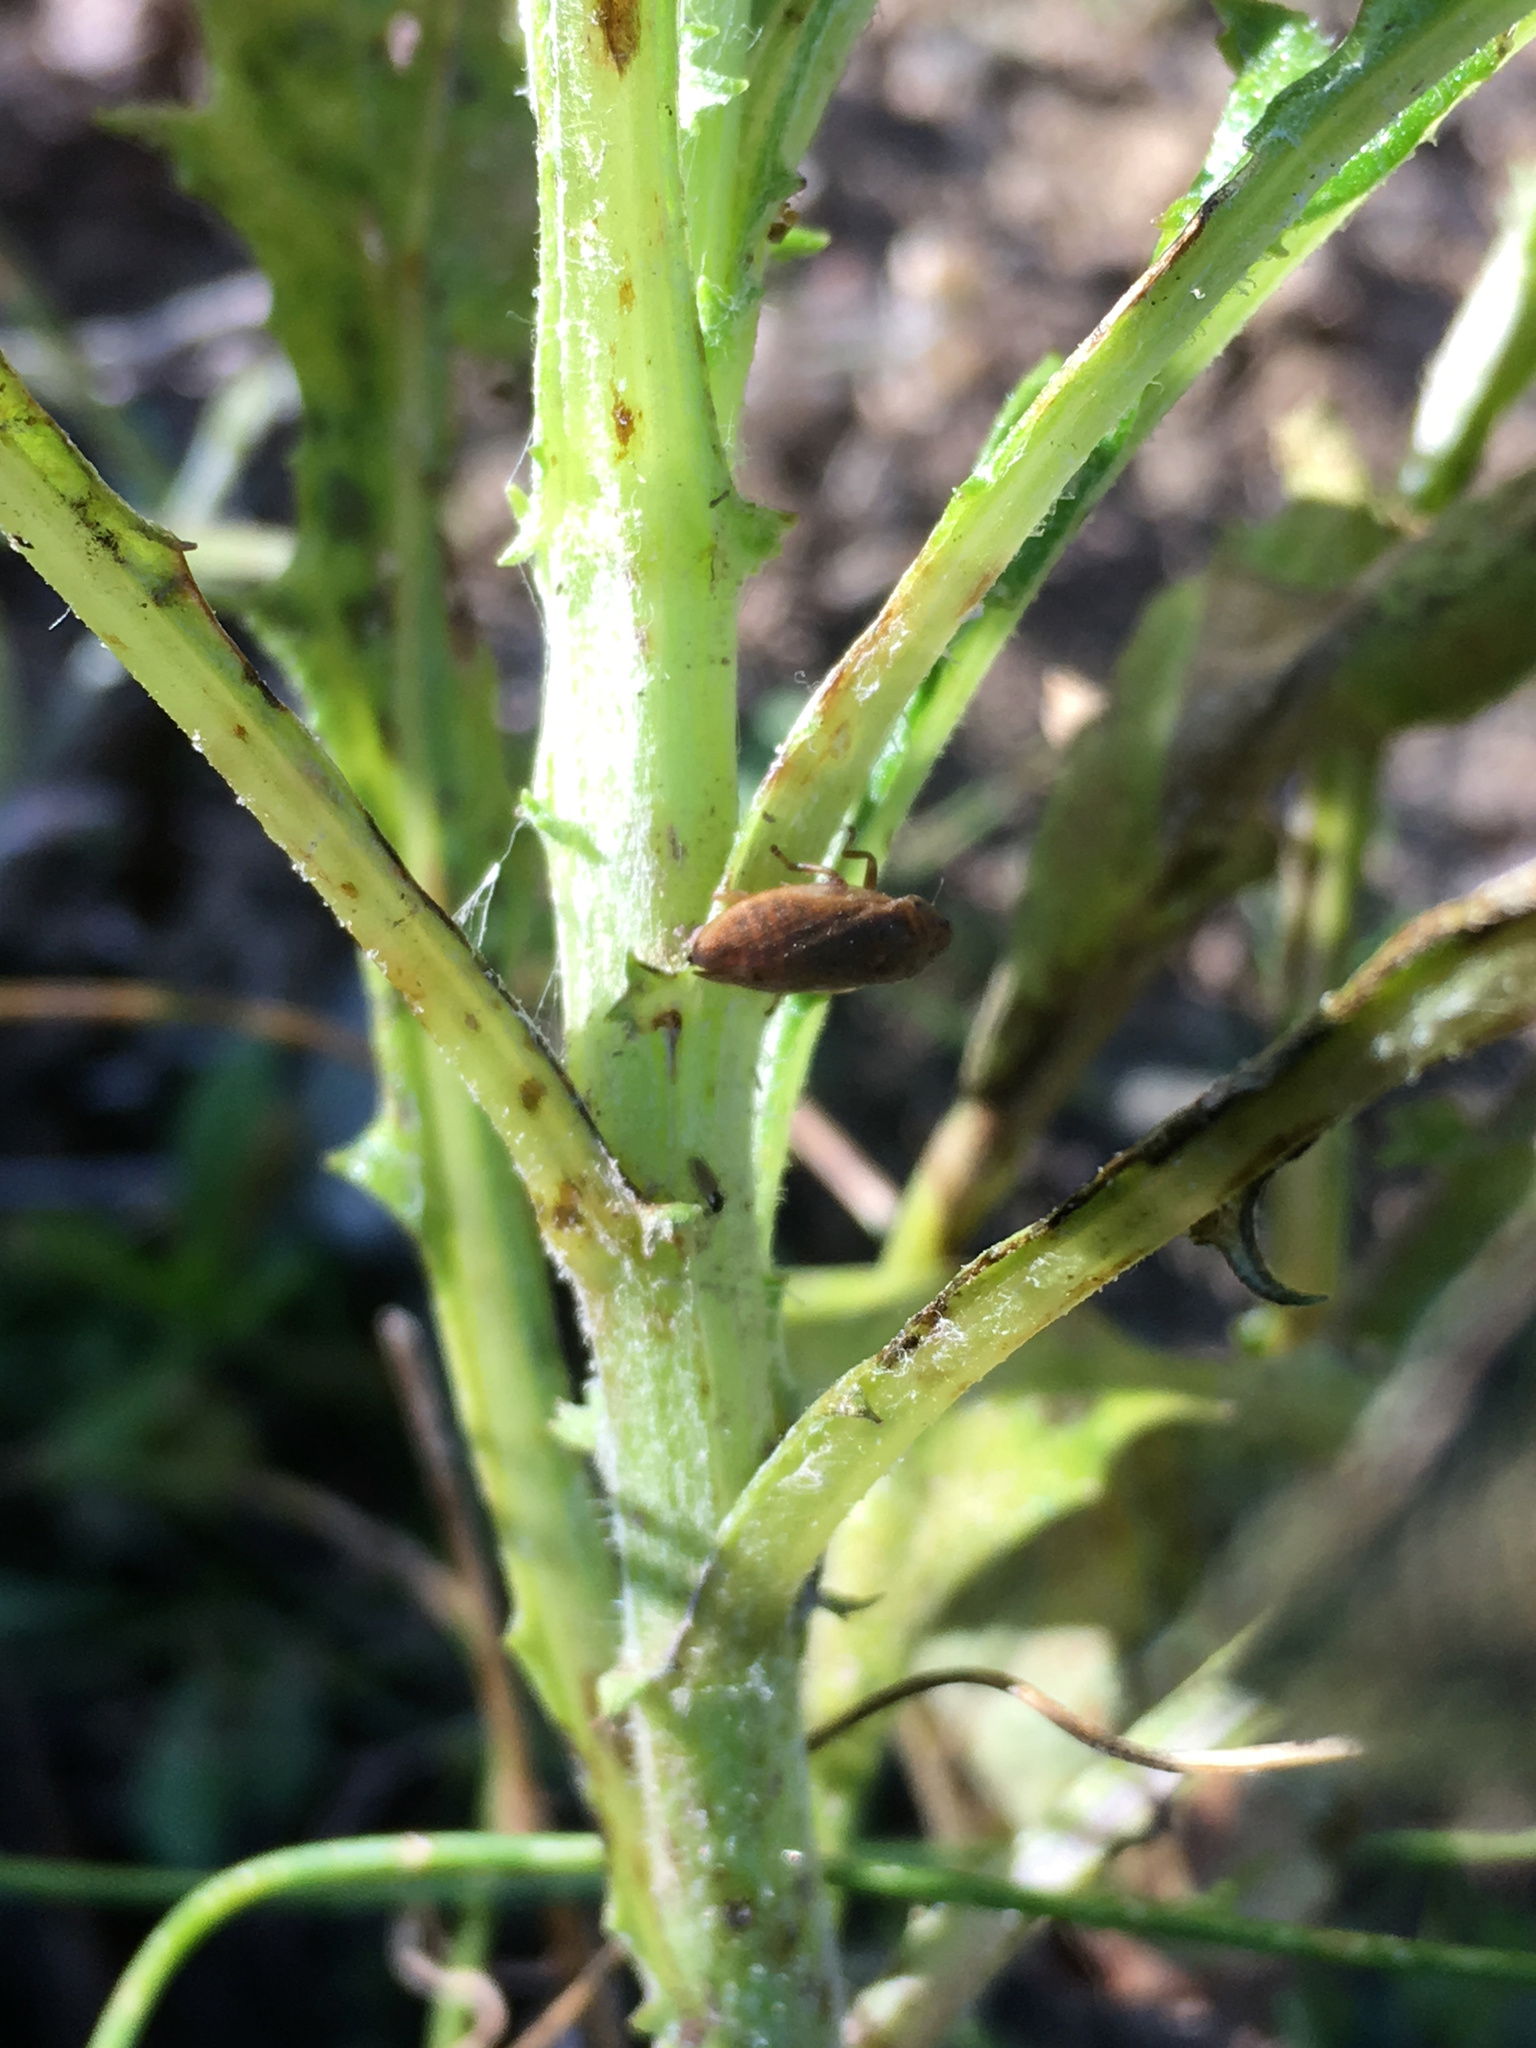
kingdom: Animalia
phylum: Arthropoda
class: Insecta
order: Hemiptera
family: Aphrophoridae
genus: Philaenus
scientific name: Philaenus spumarius
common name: Meadow spittlebug
